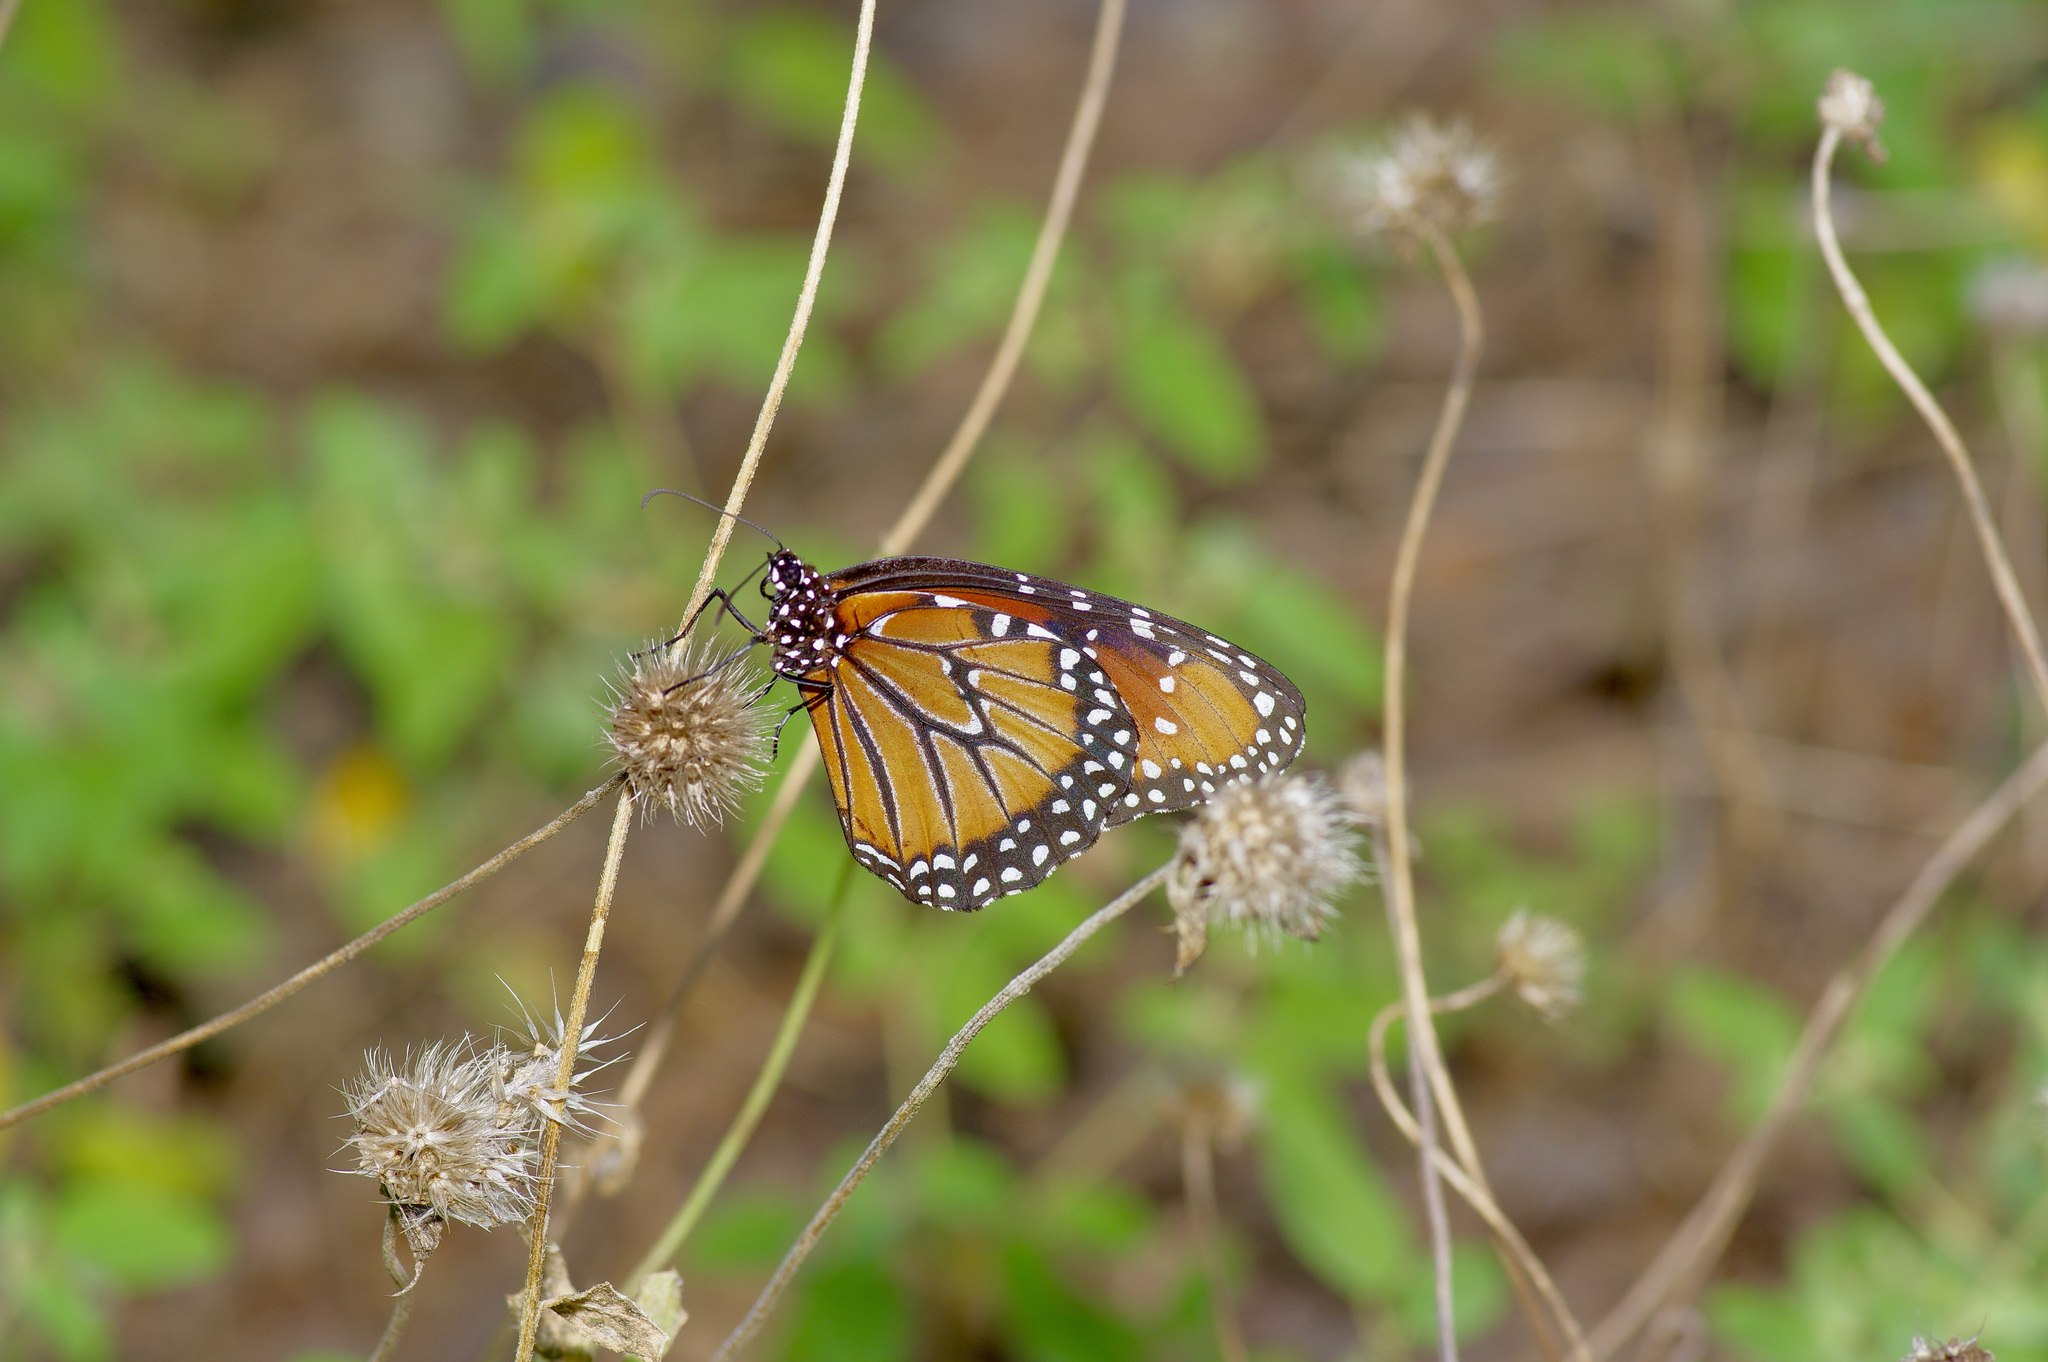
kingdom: Animalia
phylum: Arthropoda
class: Insecta
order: Lepidoptera
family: Nymphalidae
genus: Danaus
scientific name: Danaus gilippus
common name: Queen
